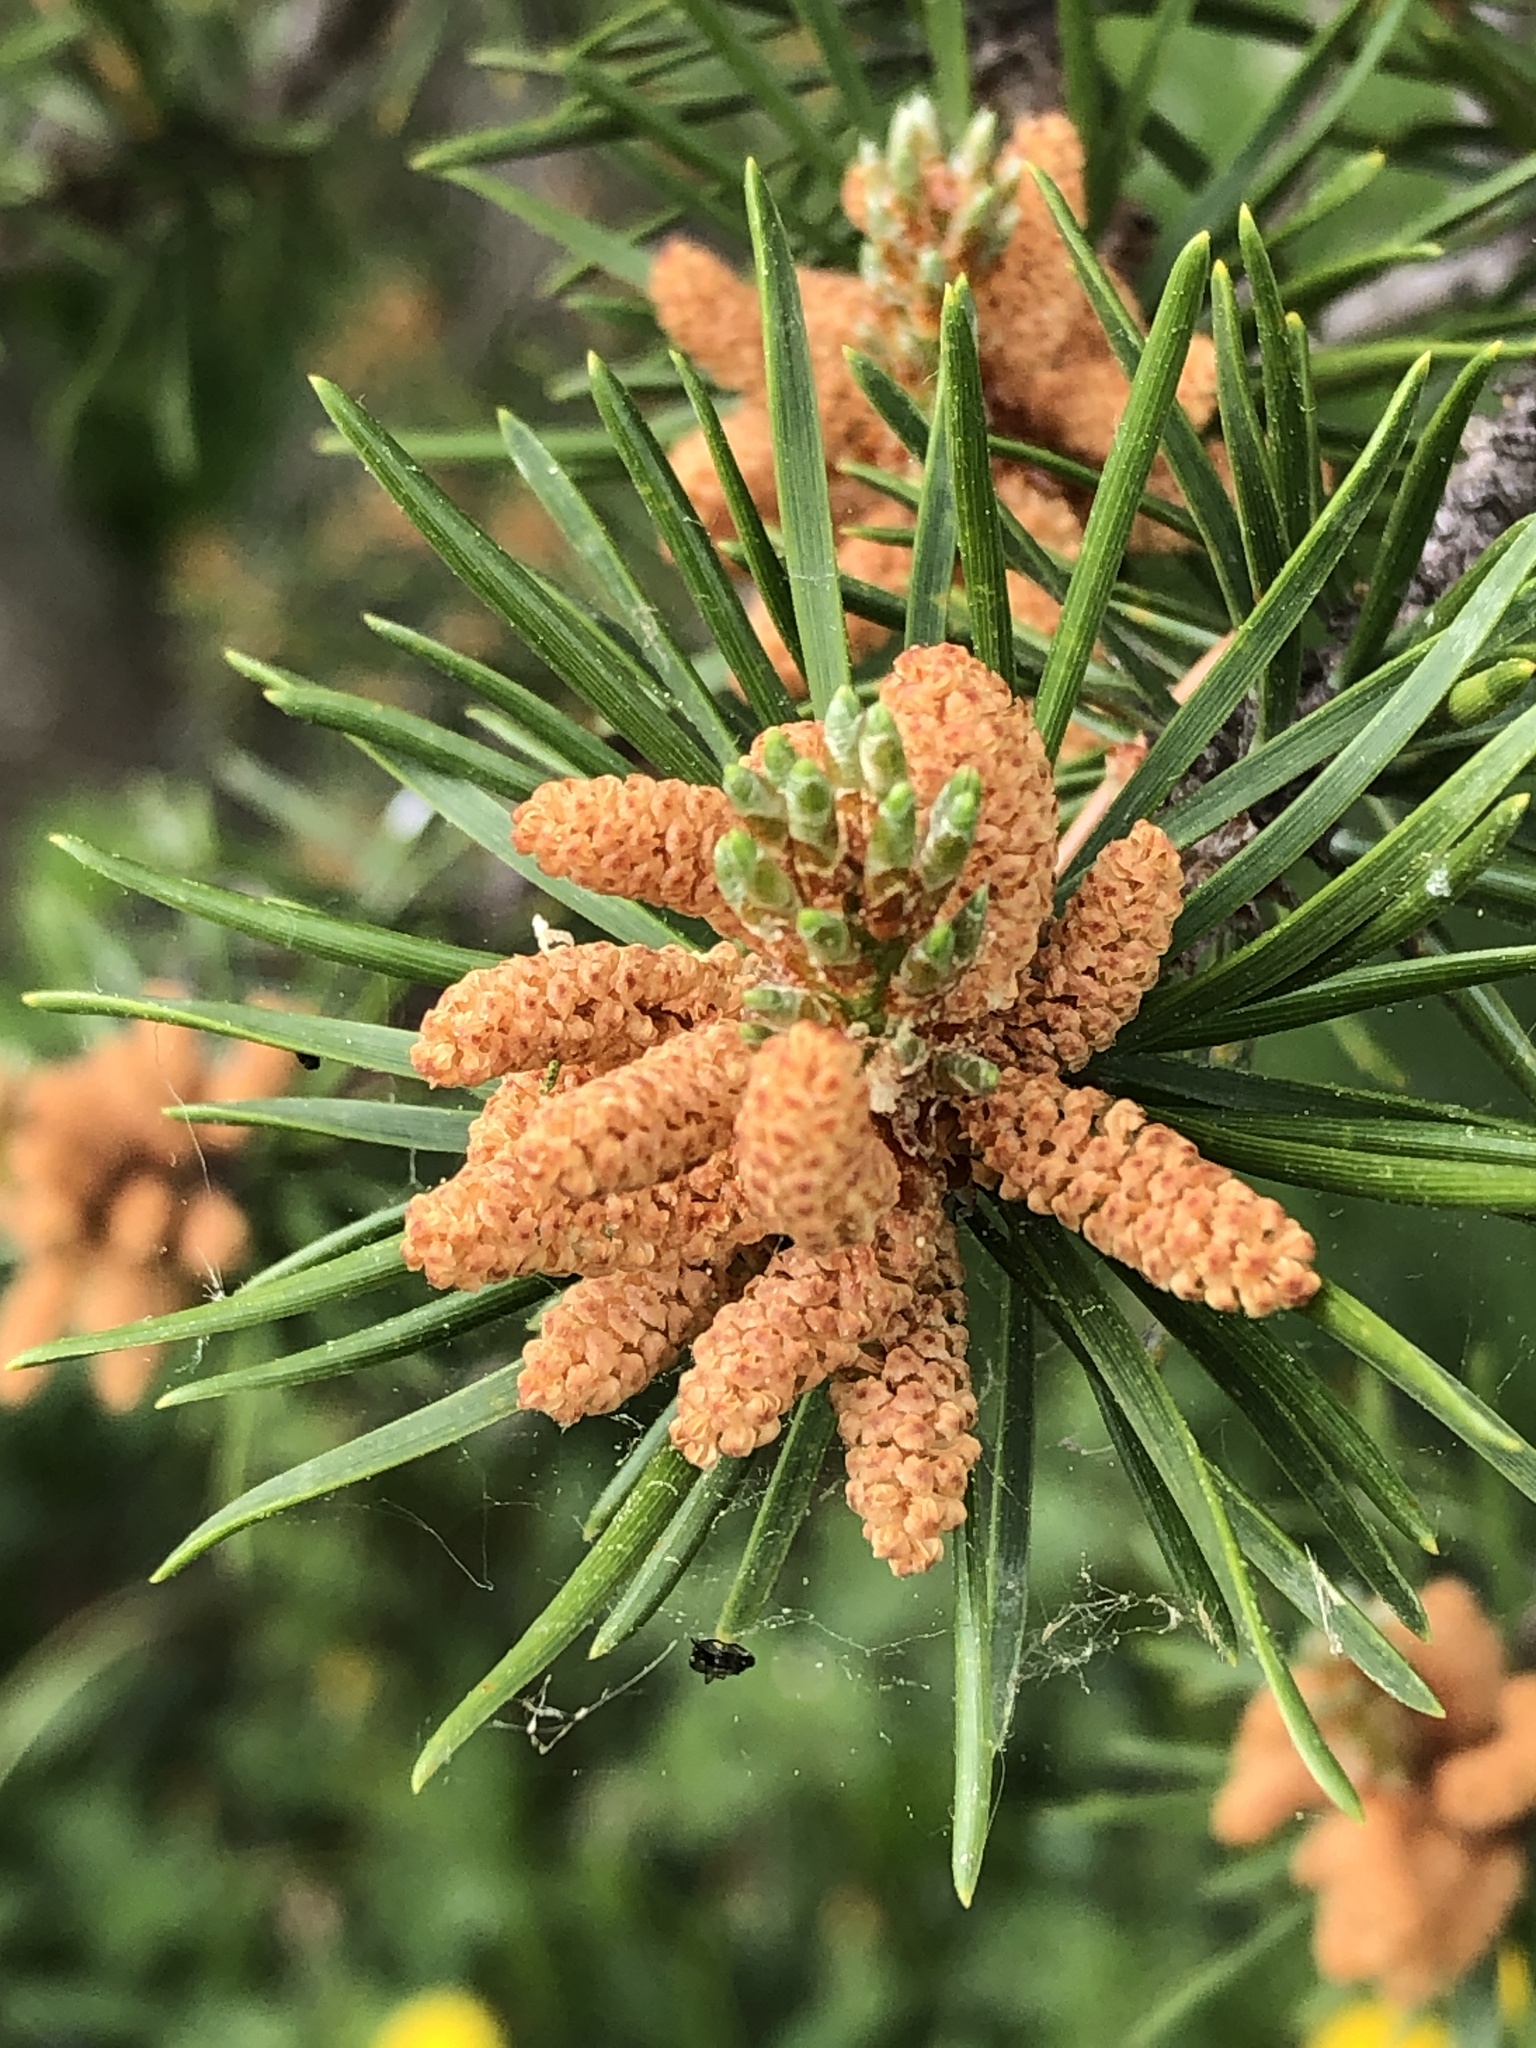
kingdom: Plantae
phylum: Tracheophyta
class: Pinopsida
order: Pinales
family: Pinaceae
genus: Pinus
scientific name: Pinus banksiana
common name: Jack pine
